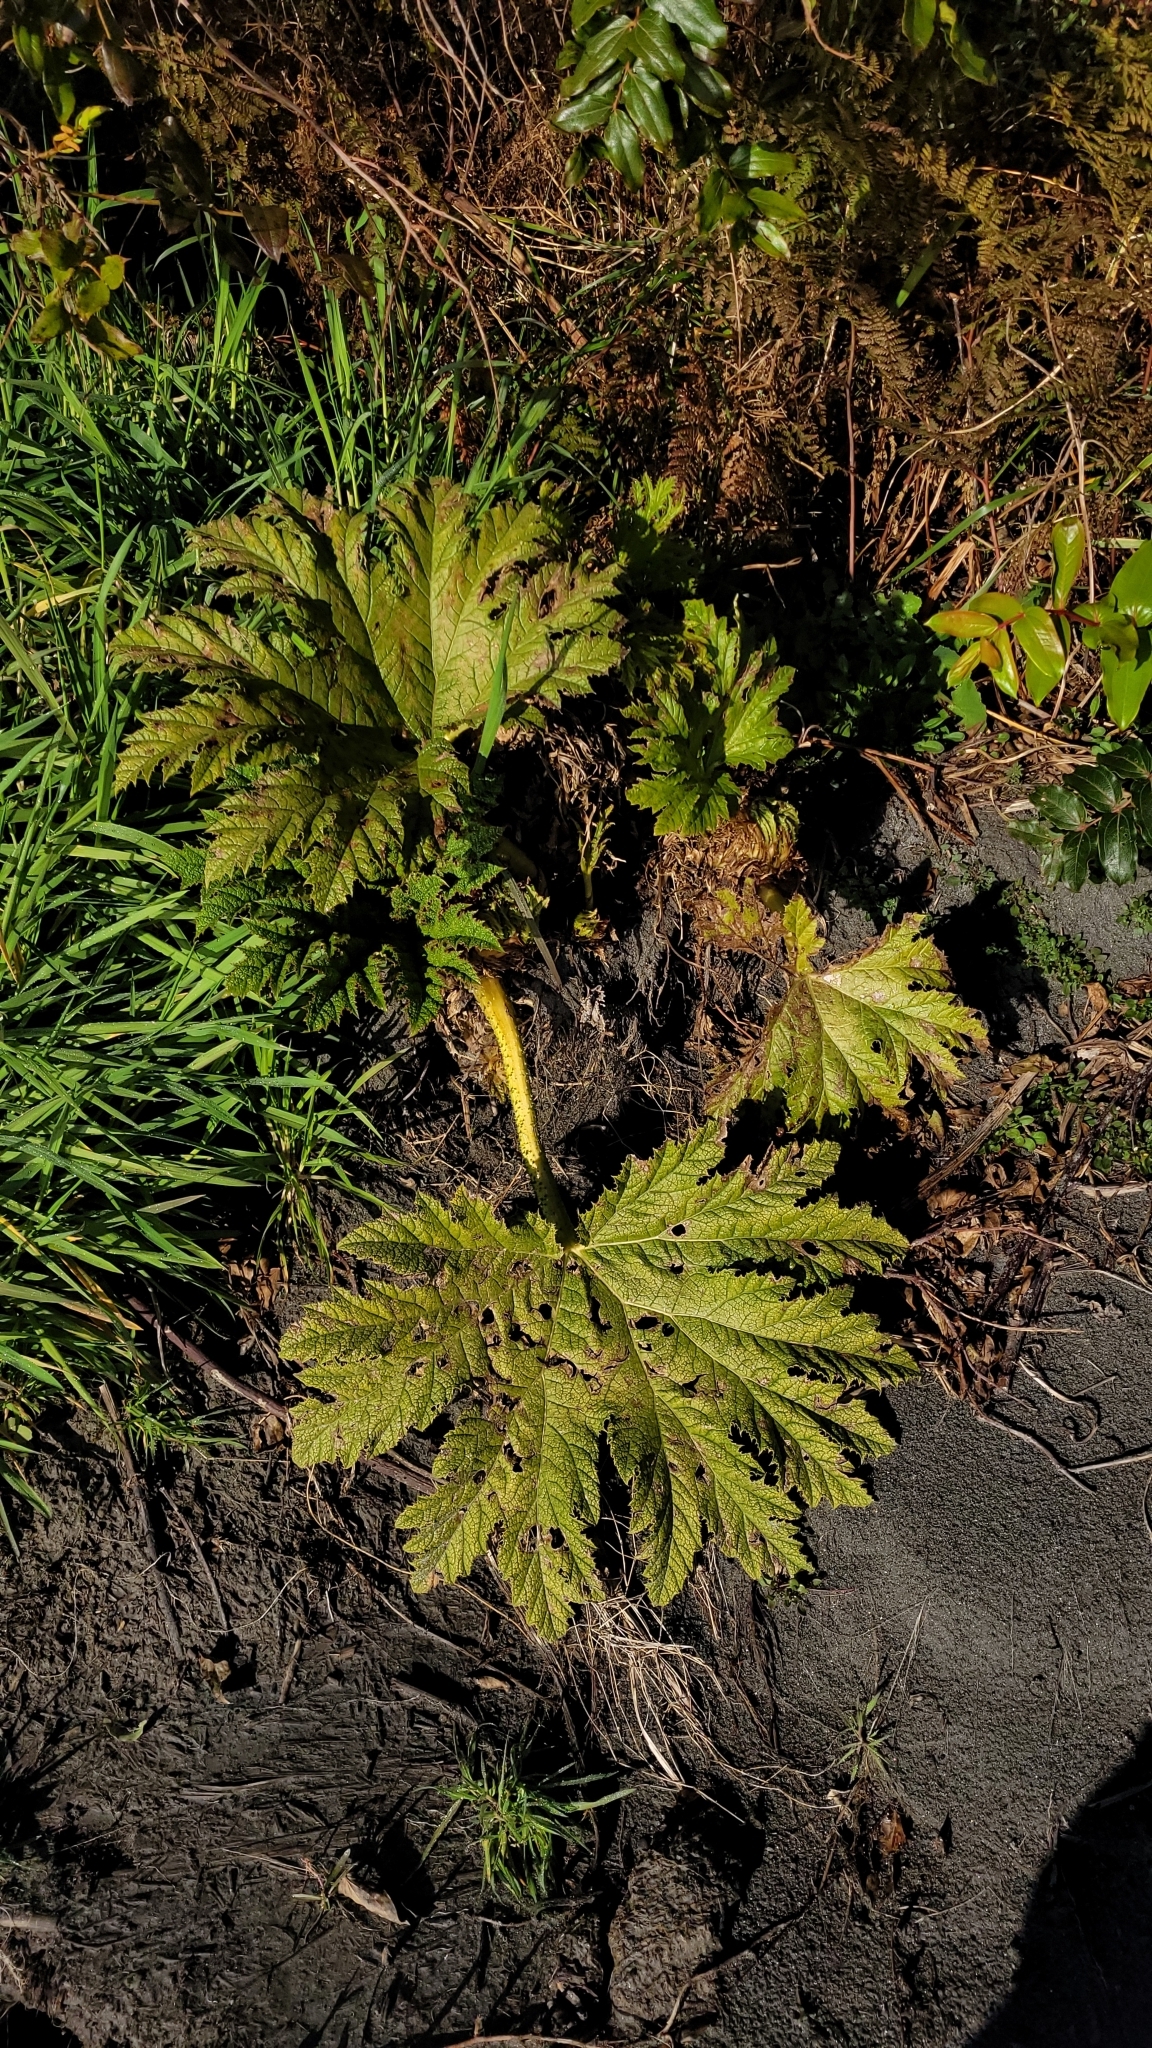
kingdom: Plantae
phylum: Tracheophyta
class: Magnoliopsida
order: Gunnerales
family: Gunneraceae
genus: Gunnera
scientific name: Gunnera tinctoria
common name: Giant-rhubarb
